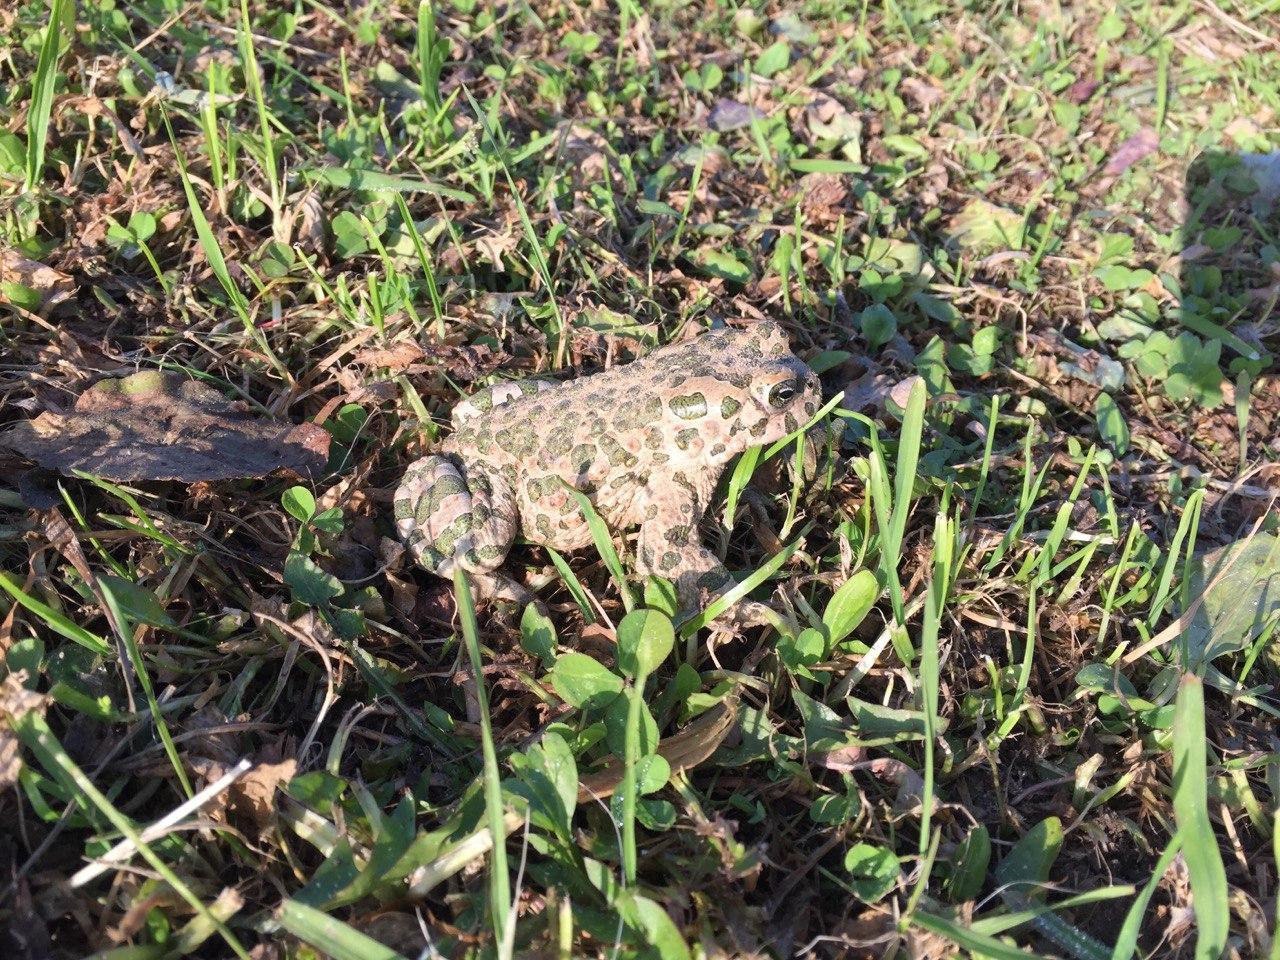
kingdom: Animalia
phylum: Chordata
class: Amphibia
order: Anura
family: Bufonidae
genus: Bufotes
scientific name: Bufotes viridis
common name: European green toad
